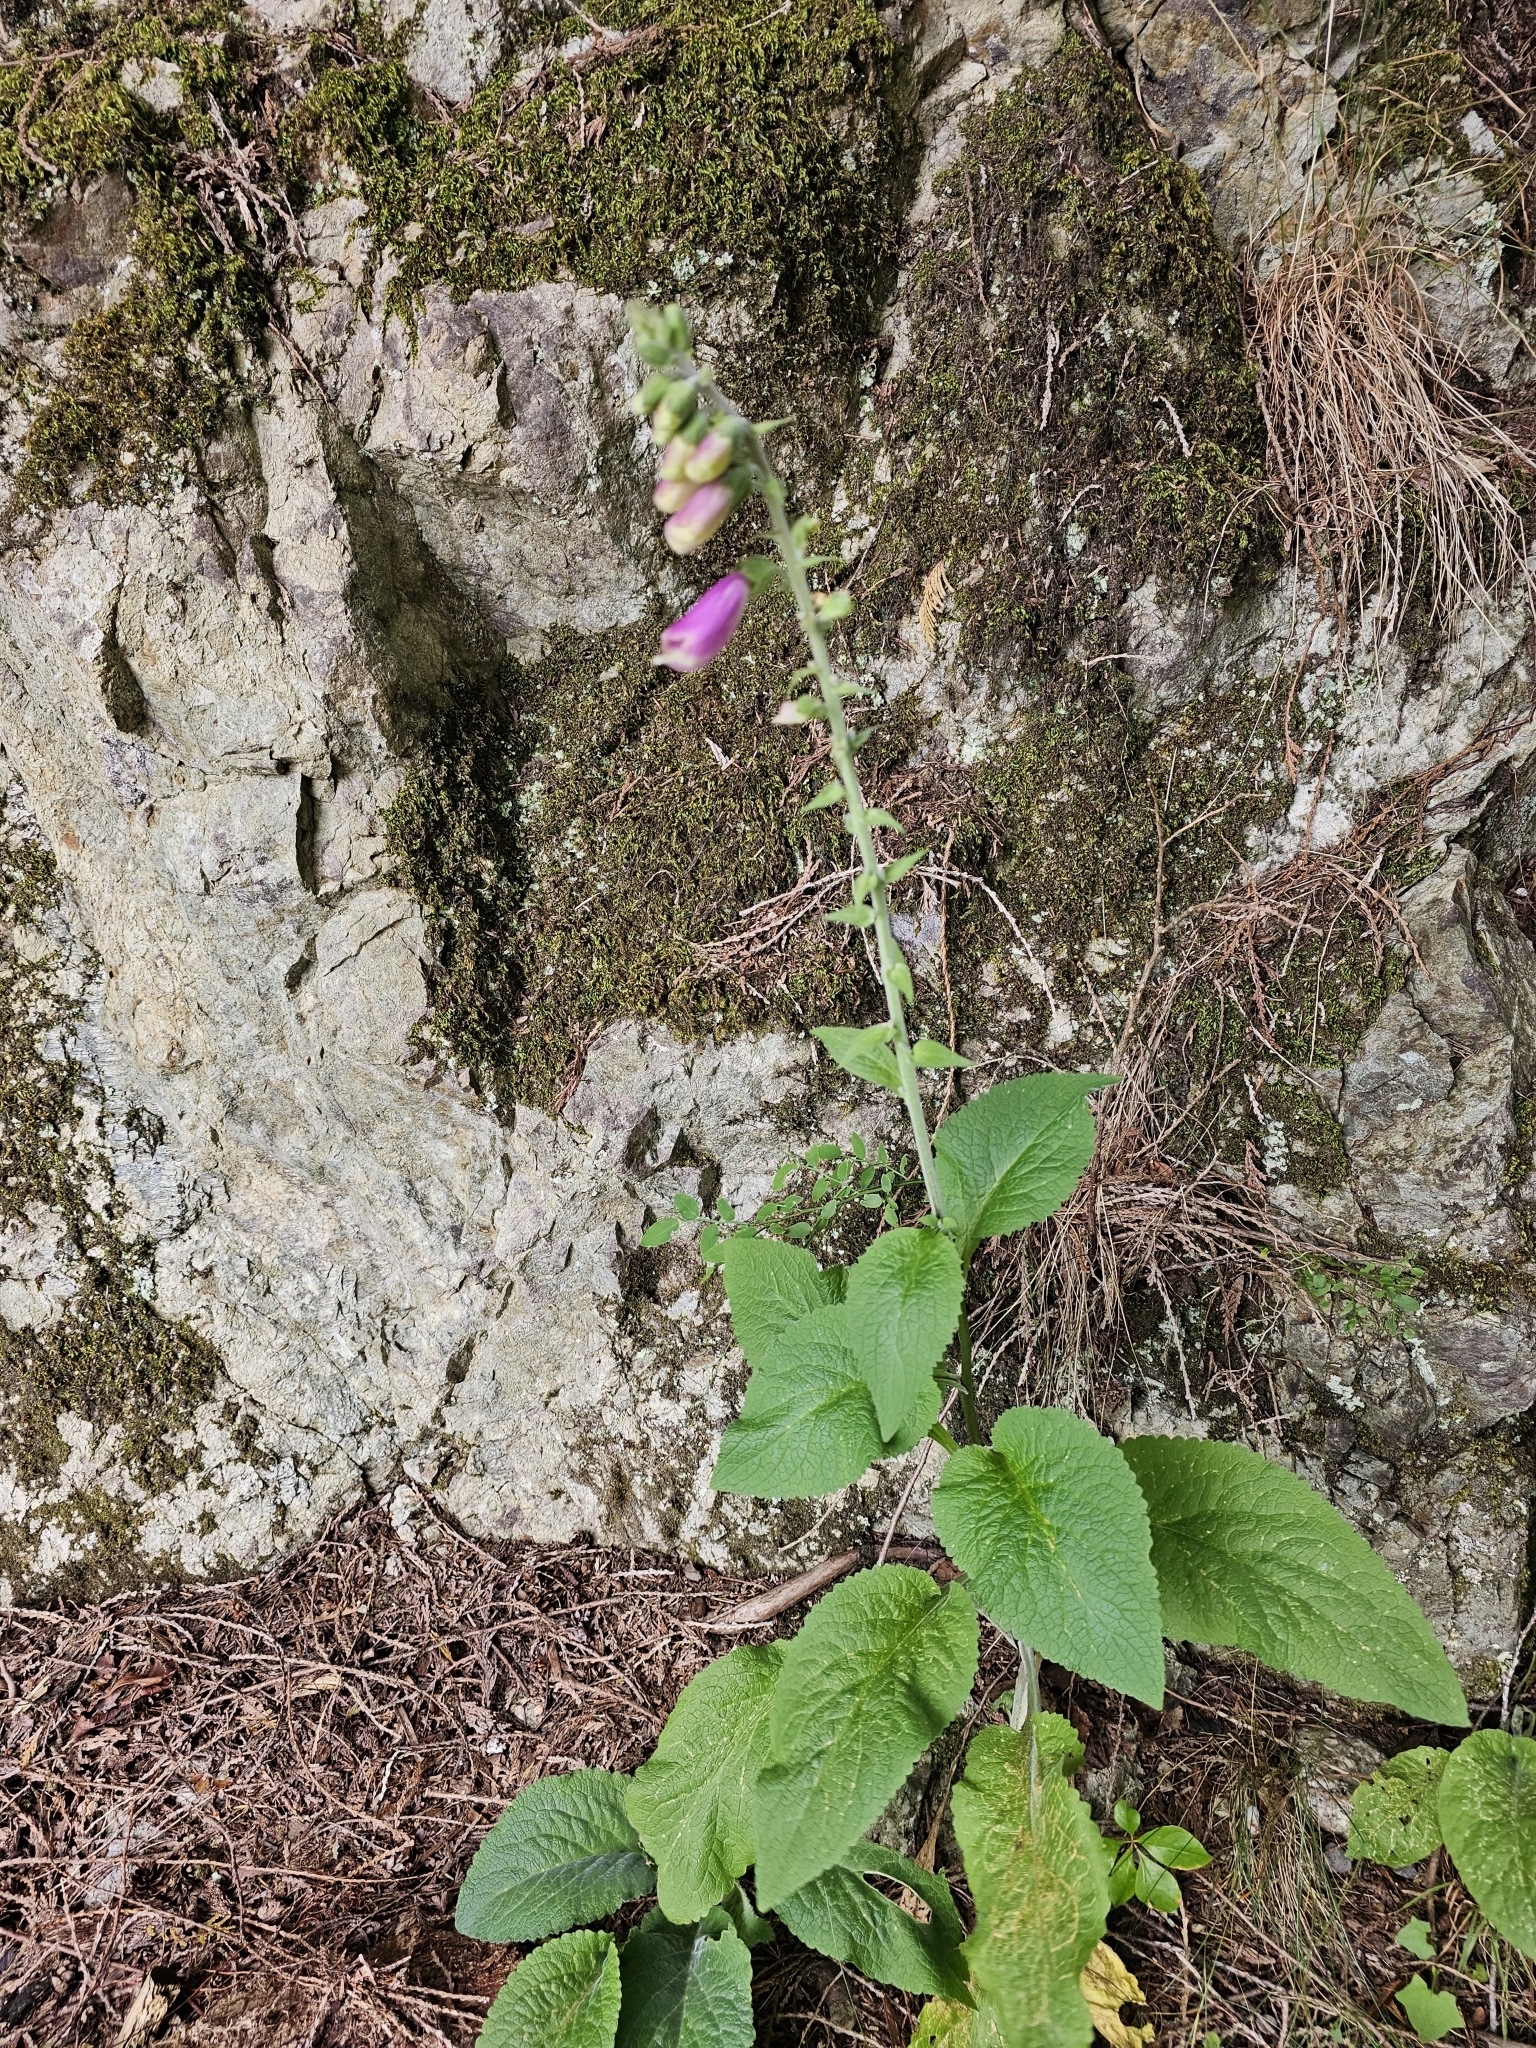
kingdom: Plantae
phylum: Tracheophyta
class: Magnoliopsida
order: Lamiales
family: Plantaginaceae
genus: Digitalis
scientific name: Digitalis purpurea
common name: Foxglove
